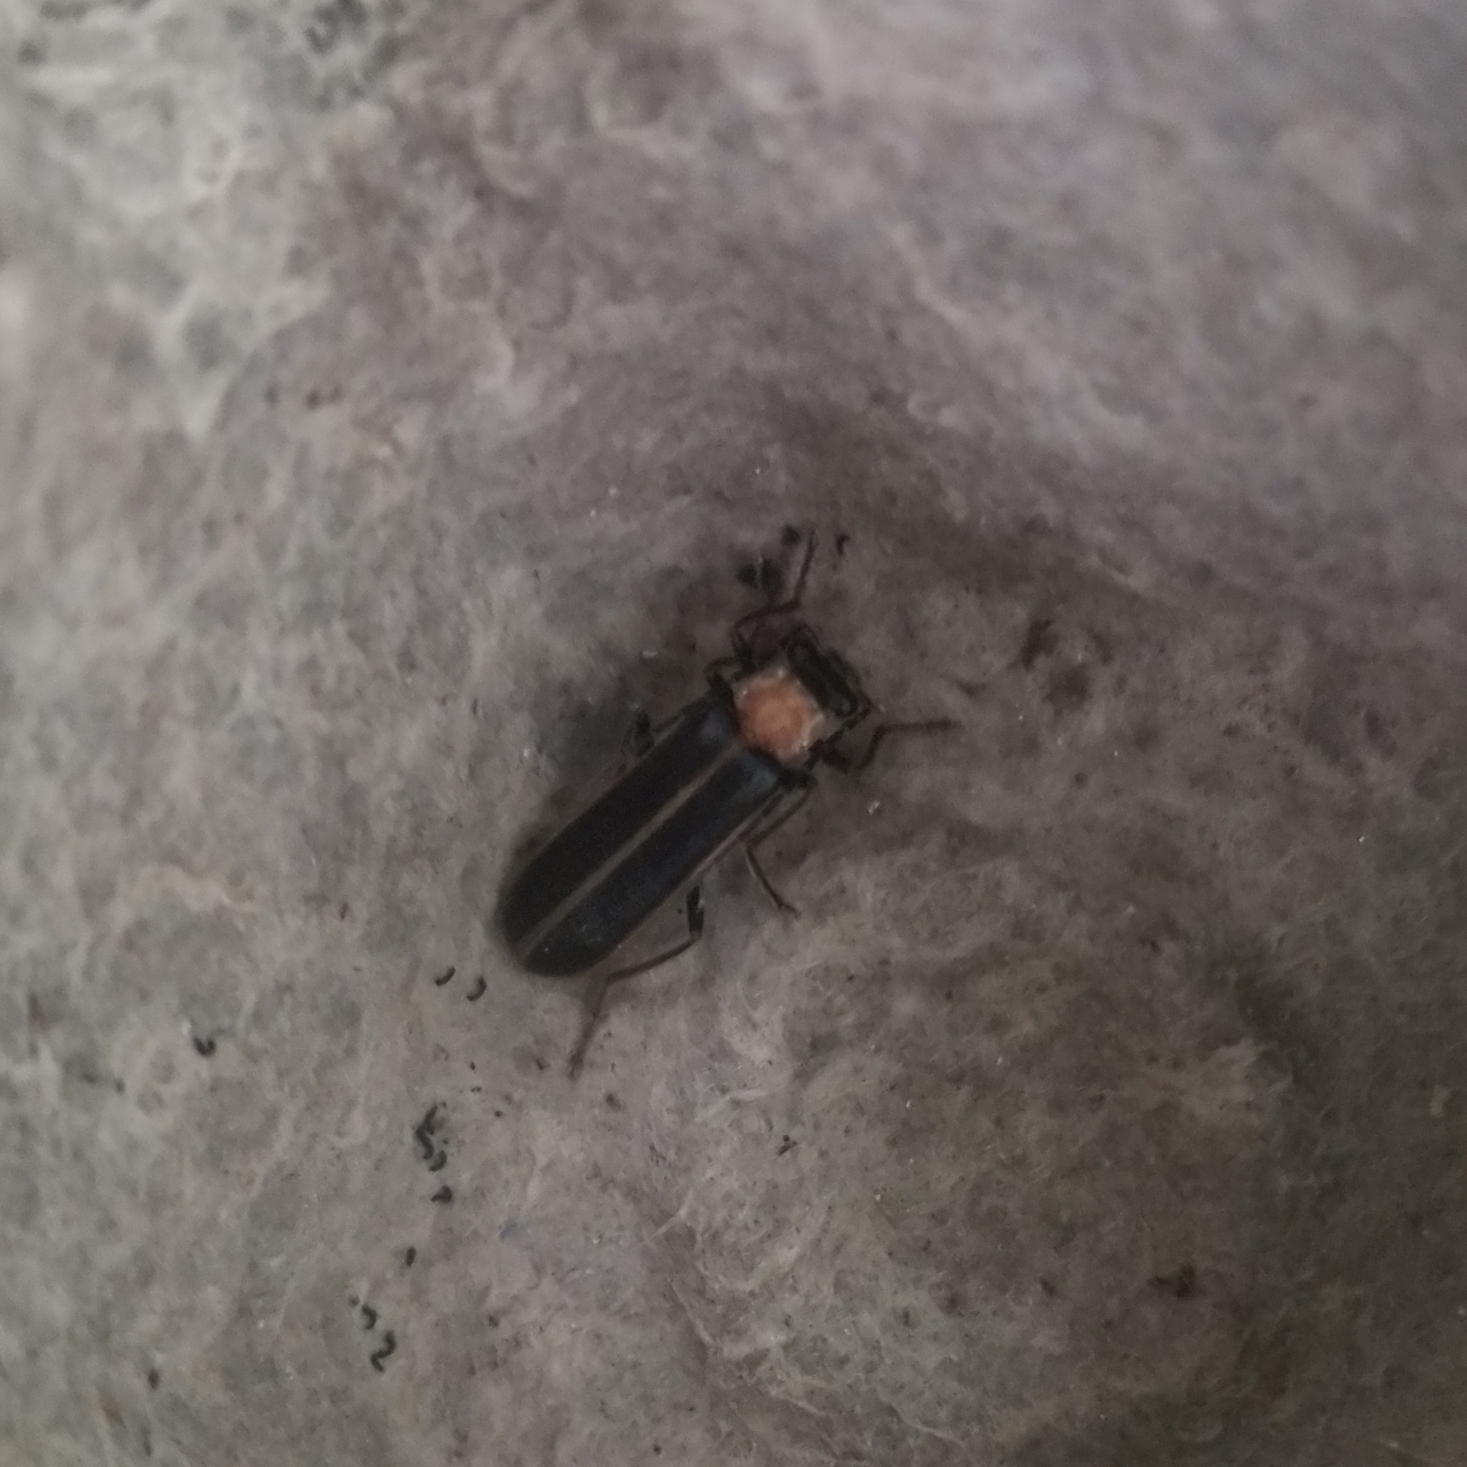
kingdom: Animalia
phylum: Arthropoda
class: Insecta
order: Coleoptera
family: Cantharidae
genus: Podabrus
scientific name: Podabrus flavicollis
